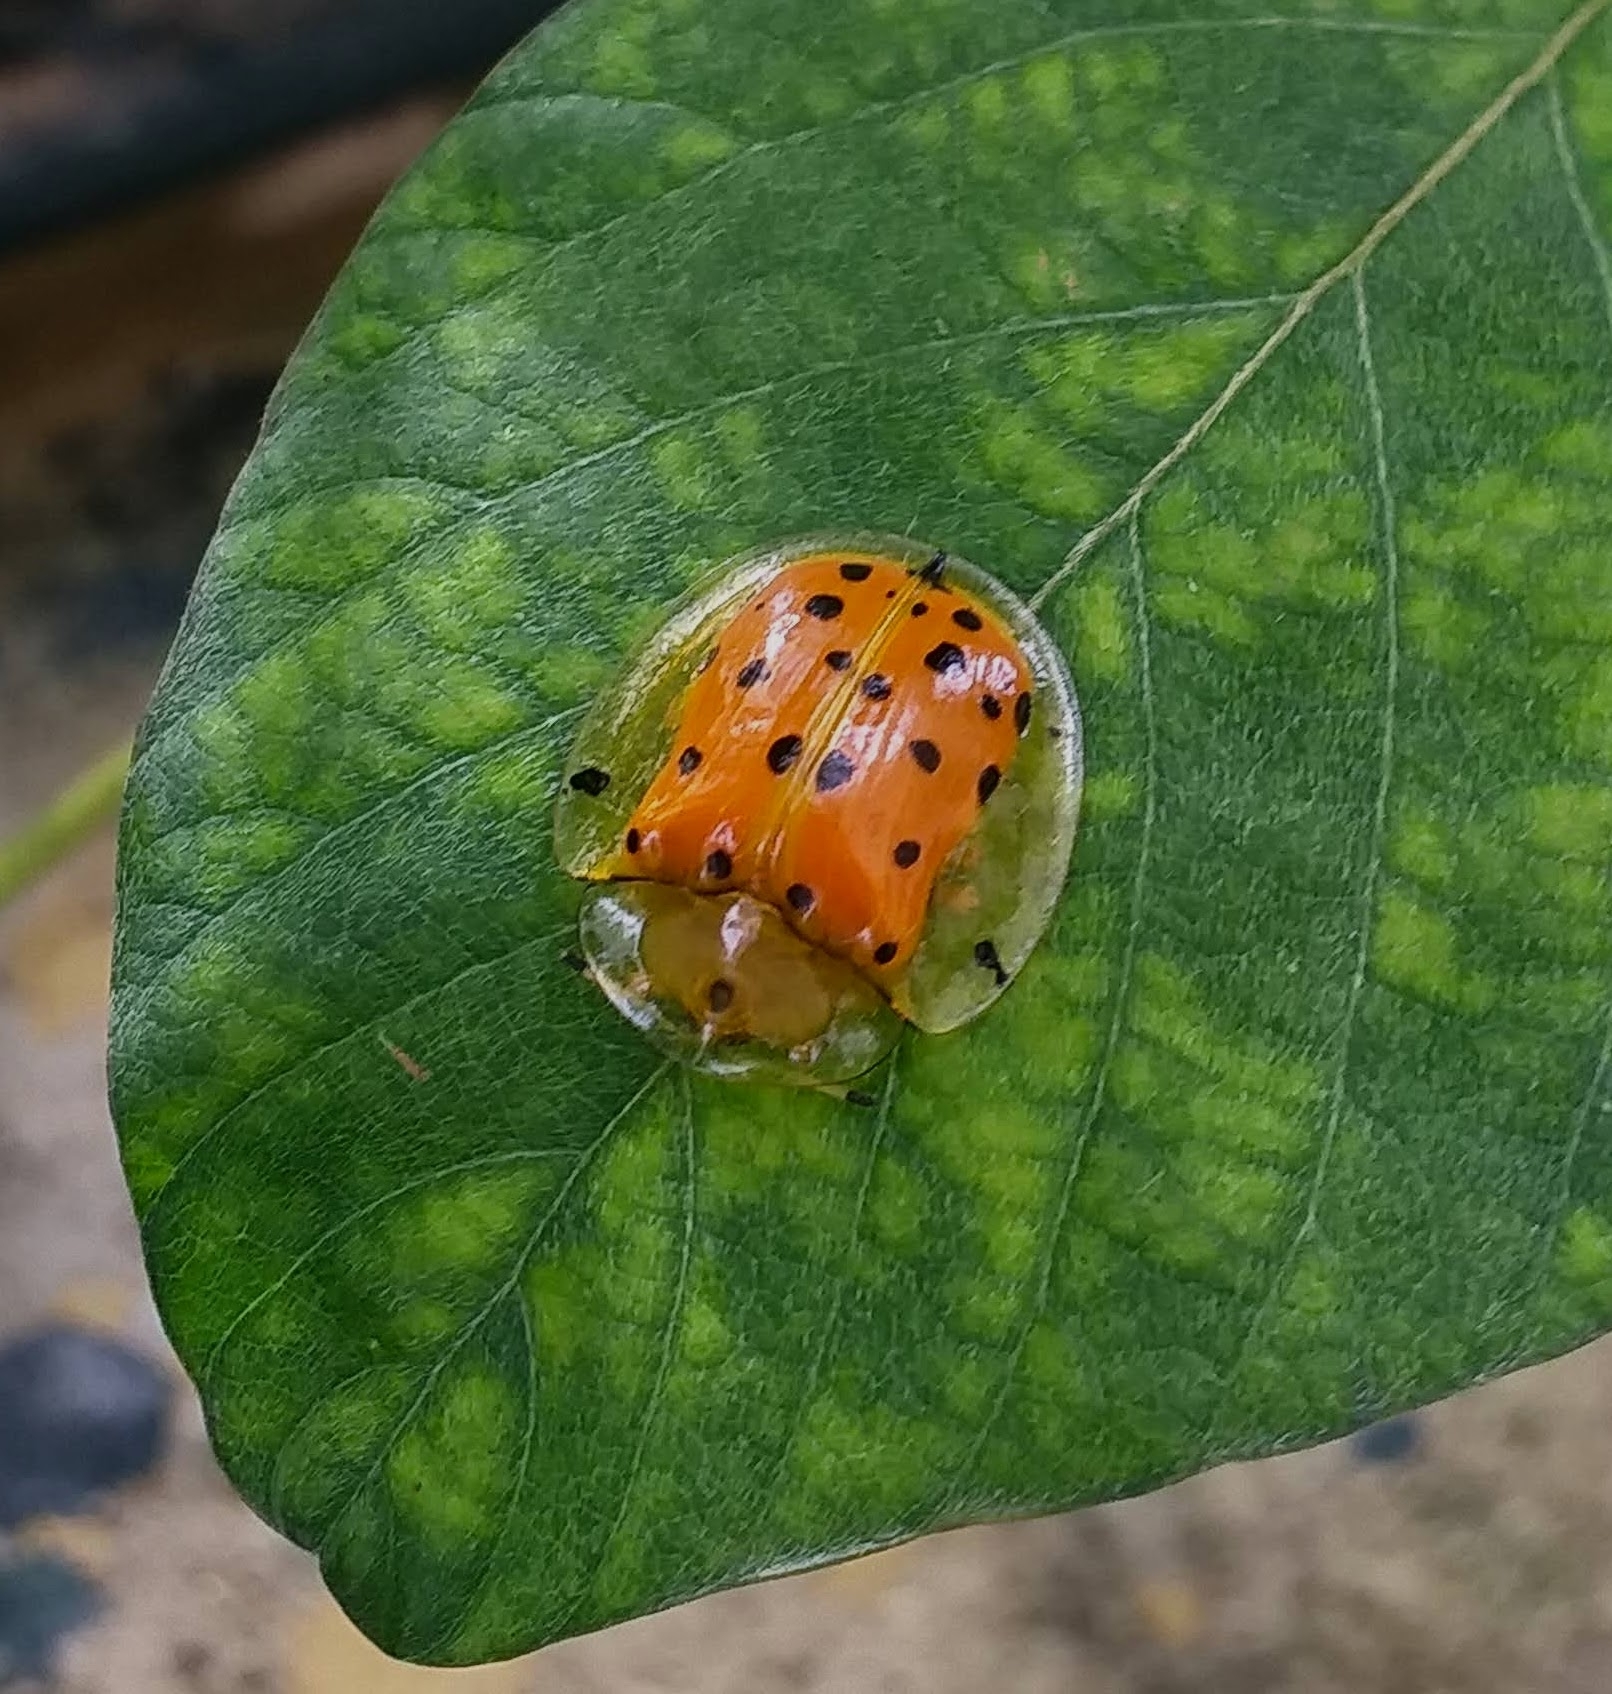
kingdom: Animalia
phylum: Arthropoda
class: Insecta
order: Coleoptera
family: Chrysomelidae
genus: Aspidimorpha
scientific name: Aspidimorpha miliaris
